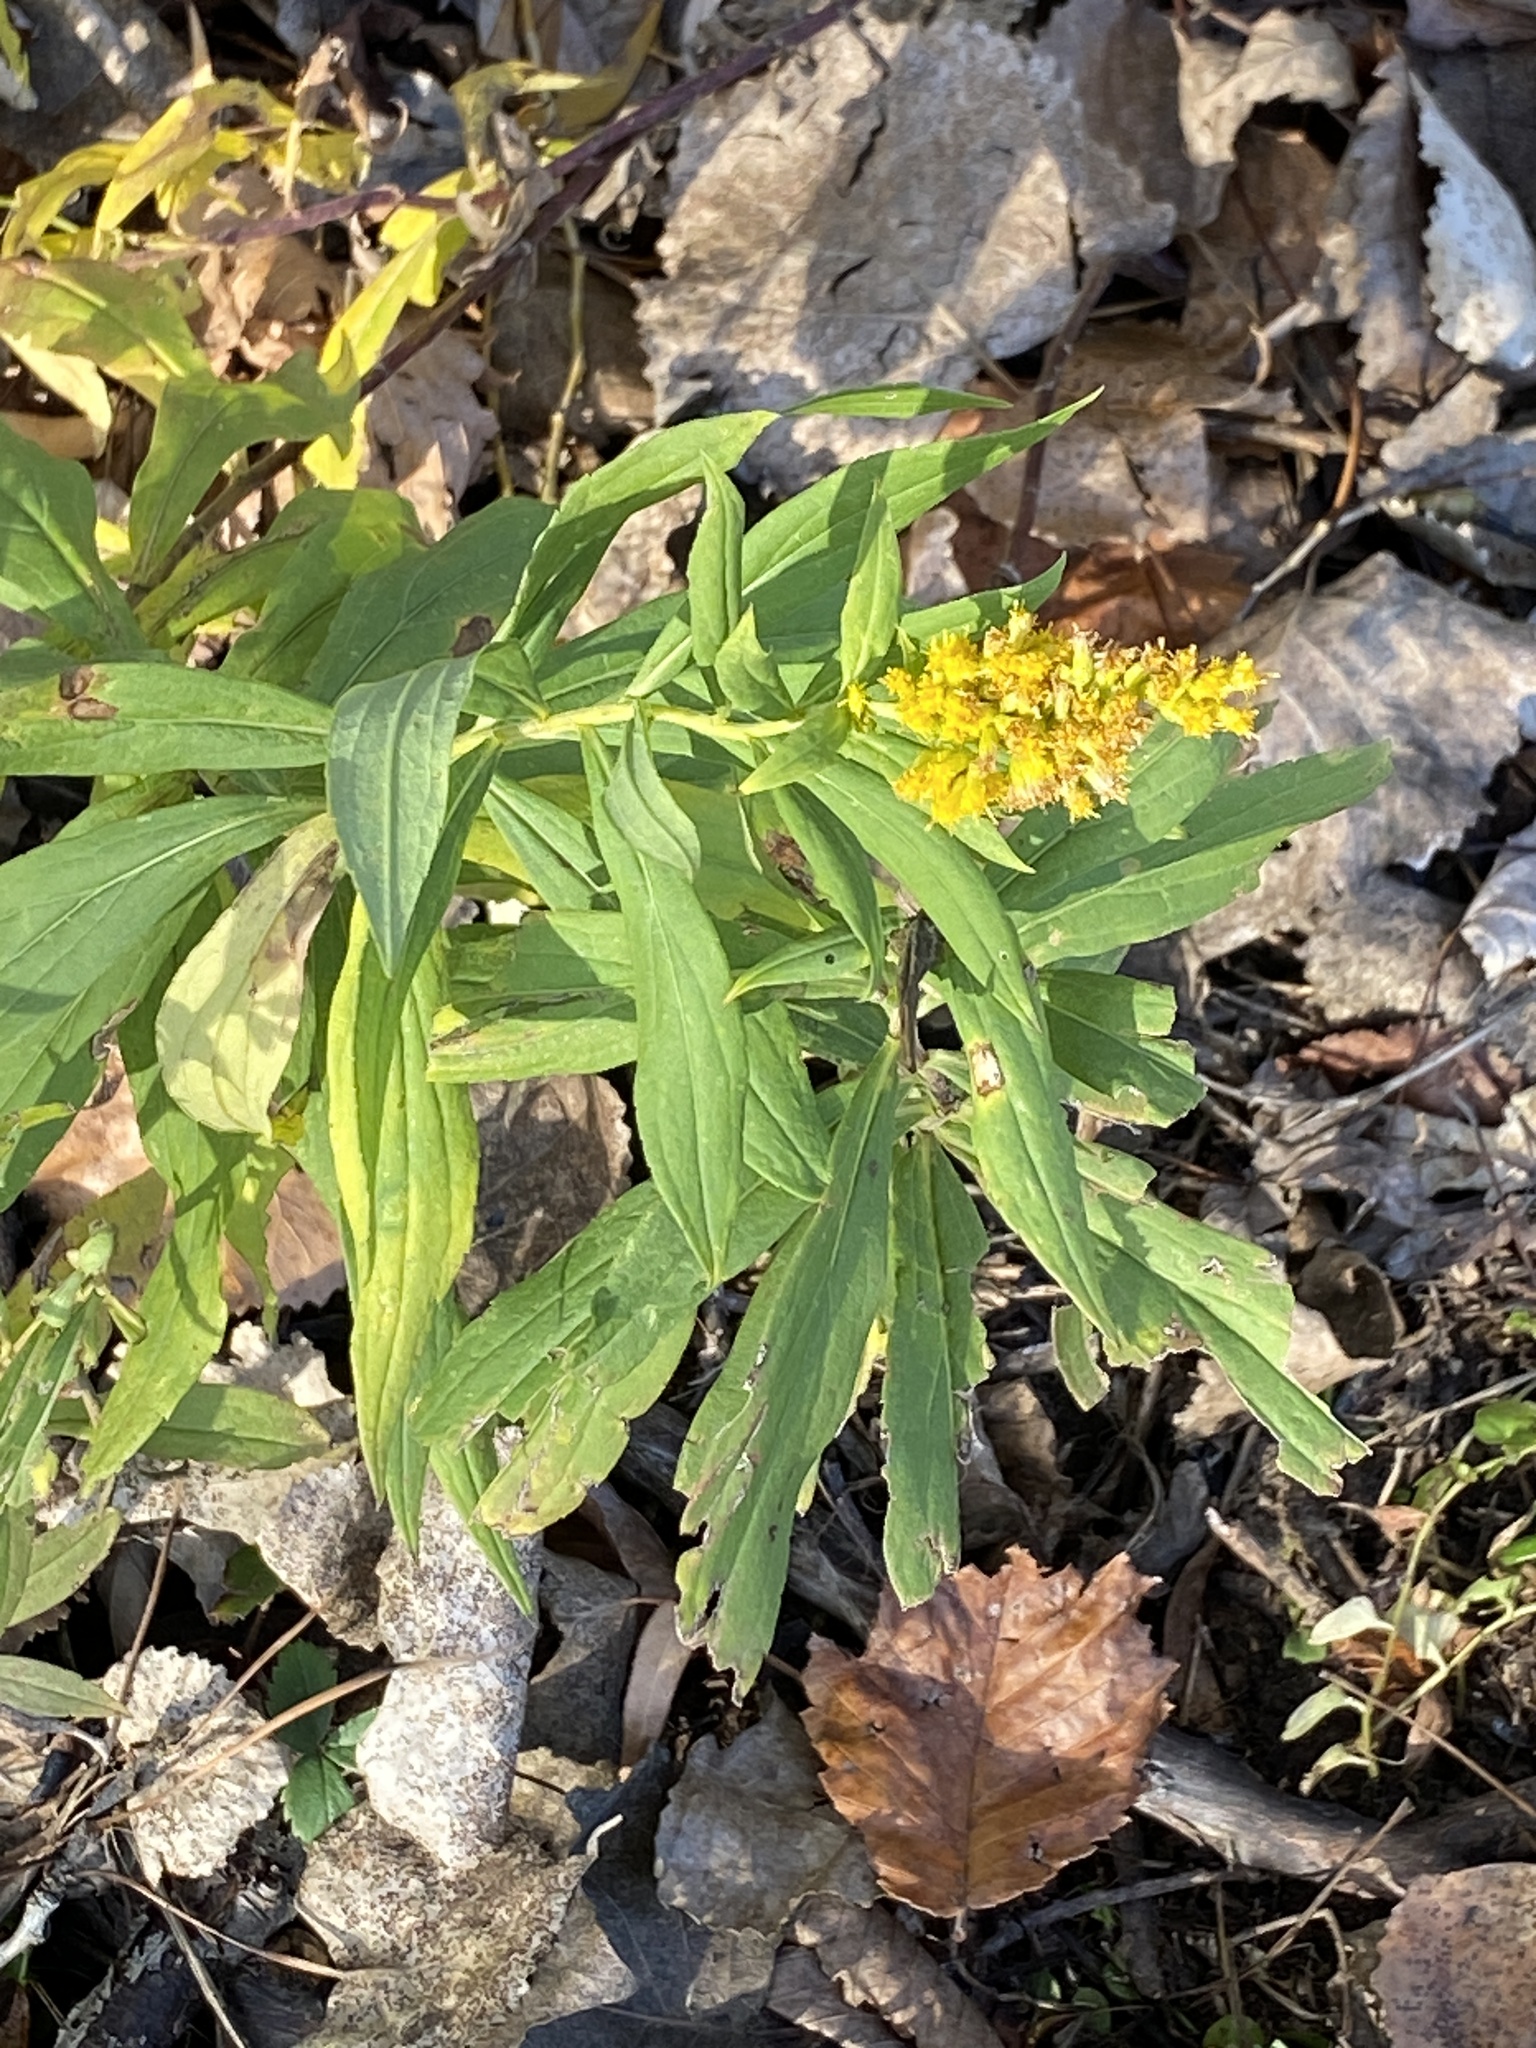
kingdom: Plantae
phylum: Tracheophyta
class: Magnoliopsida
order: Asterales
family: Asteraceae
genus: Solidago
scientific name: Solidago altissima
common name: Late goldenrod
